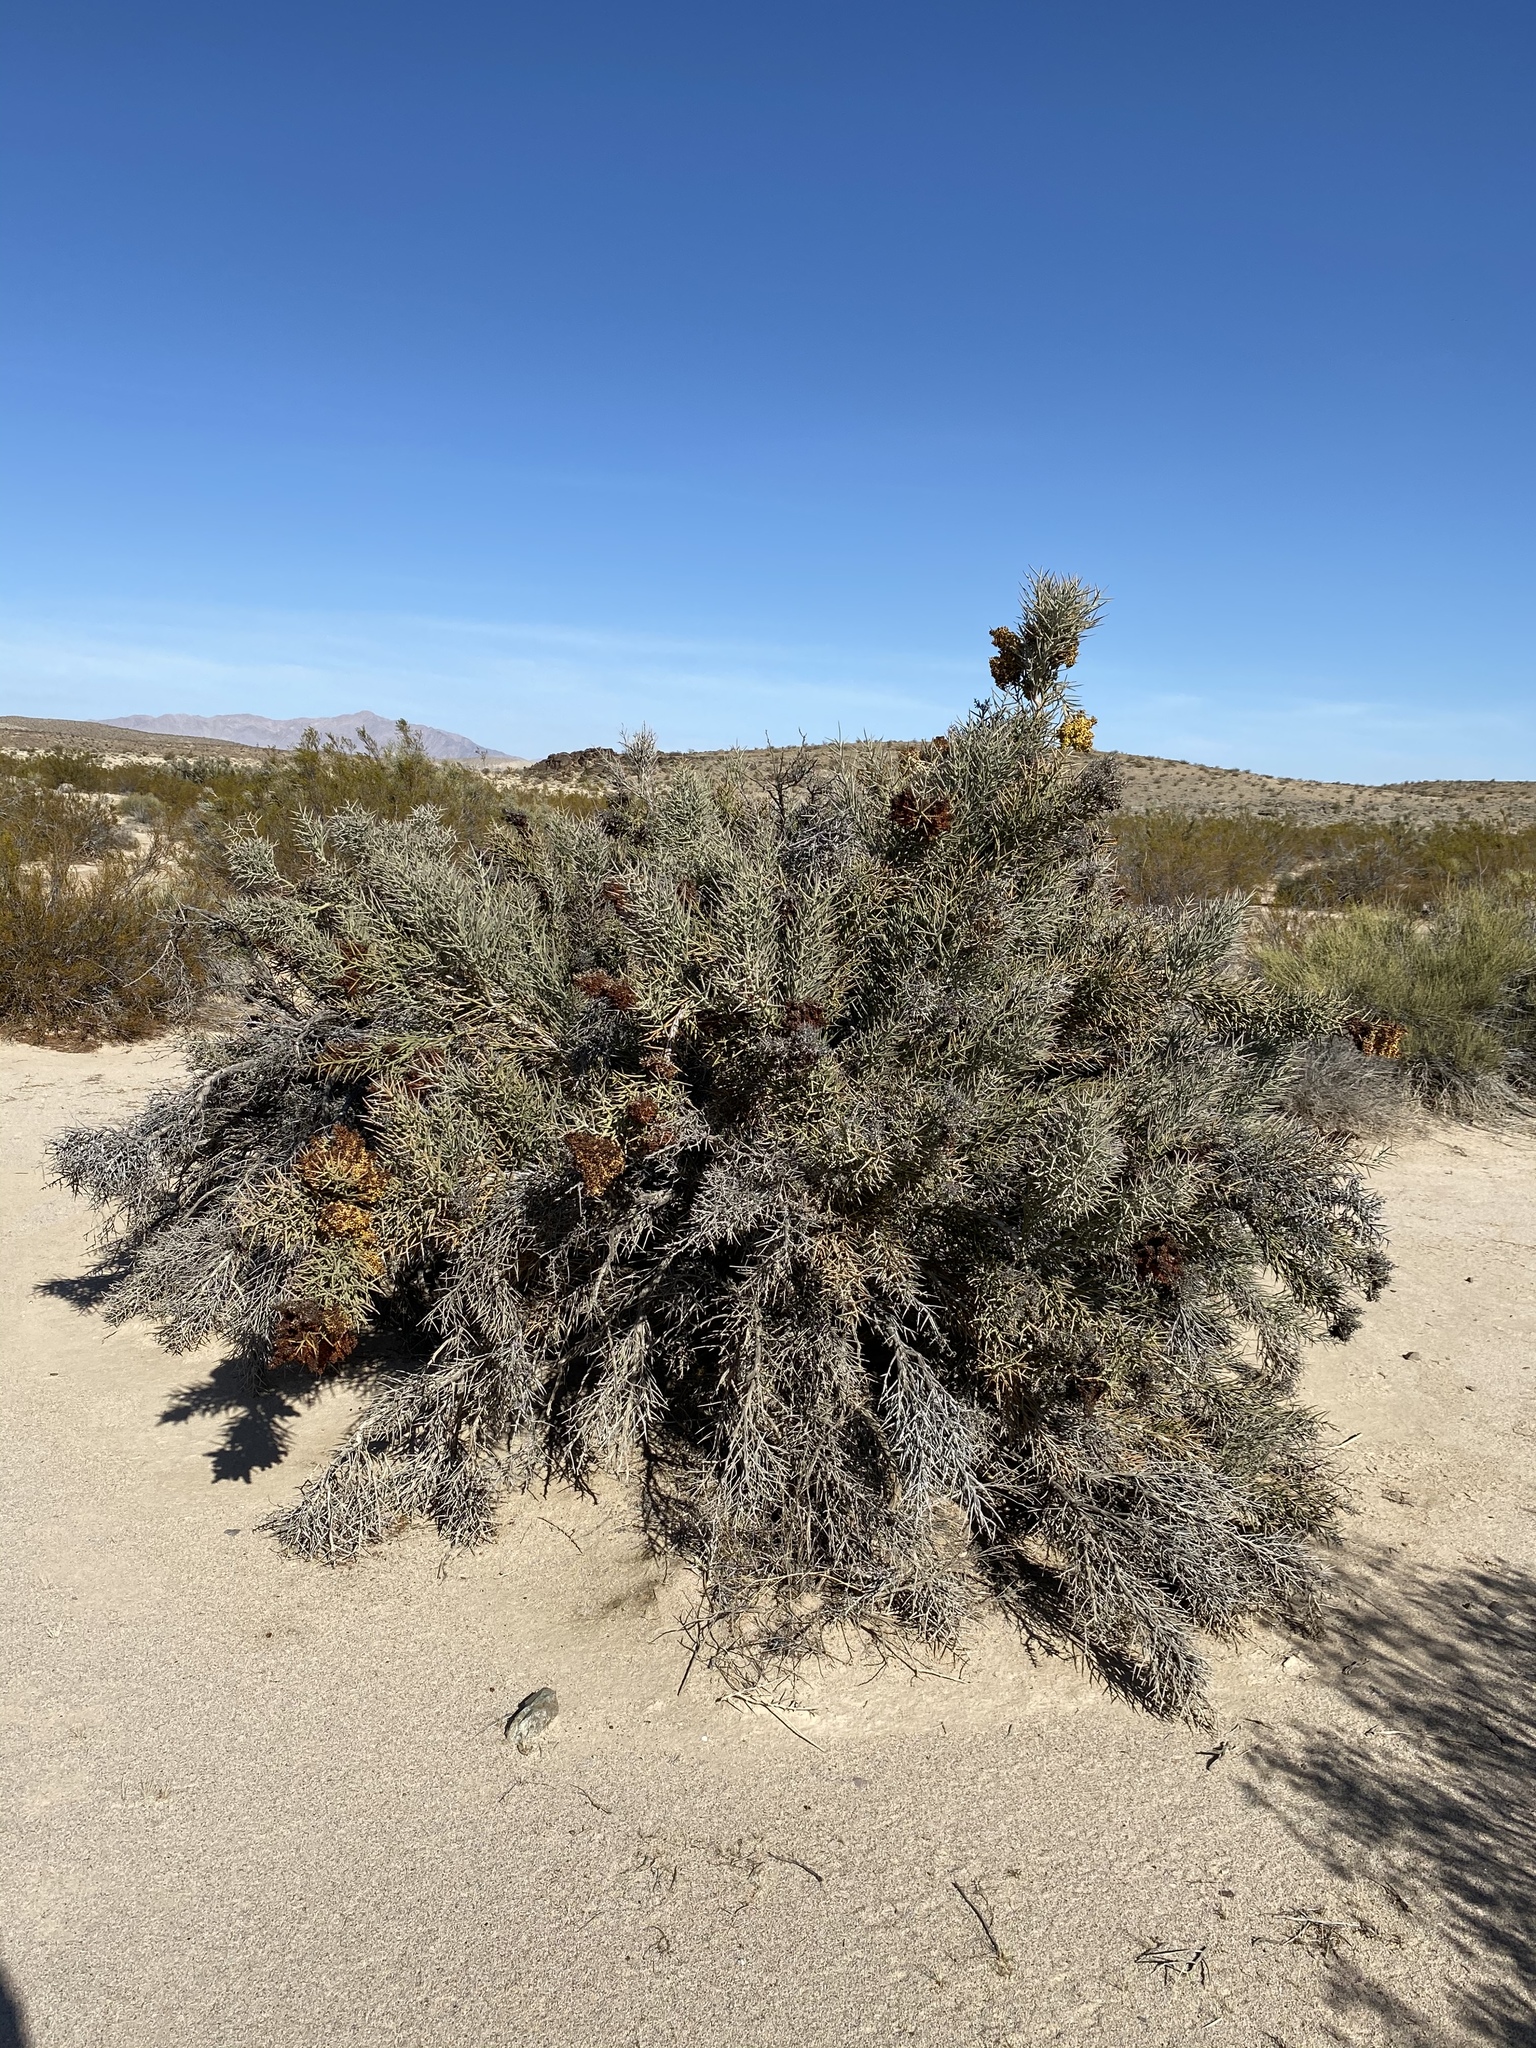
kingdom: Plantae
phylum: Tracheophyta
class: Magnoliopsida
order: Sapindales
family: Simaroubaceae
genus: Holacantha
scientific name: Holacantha emoryi
